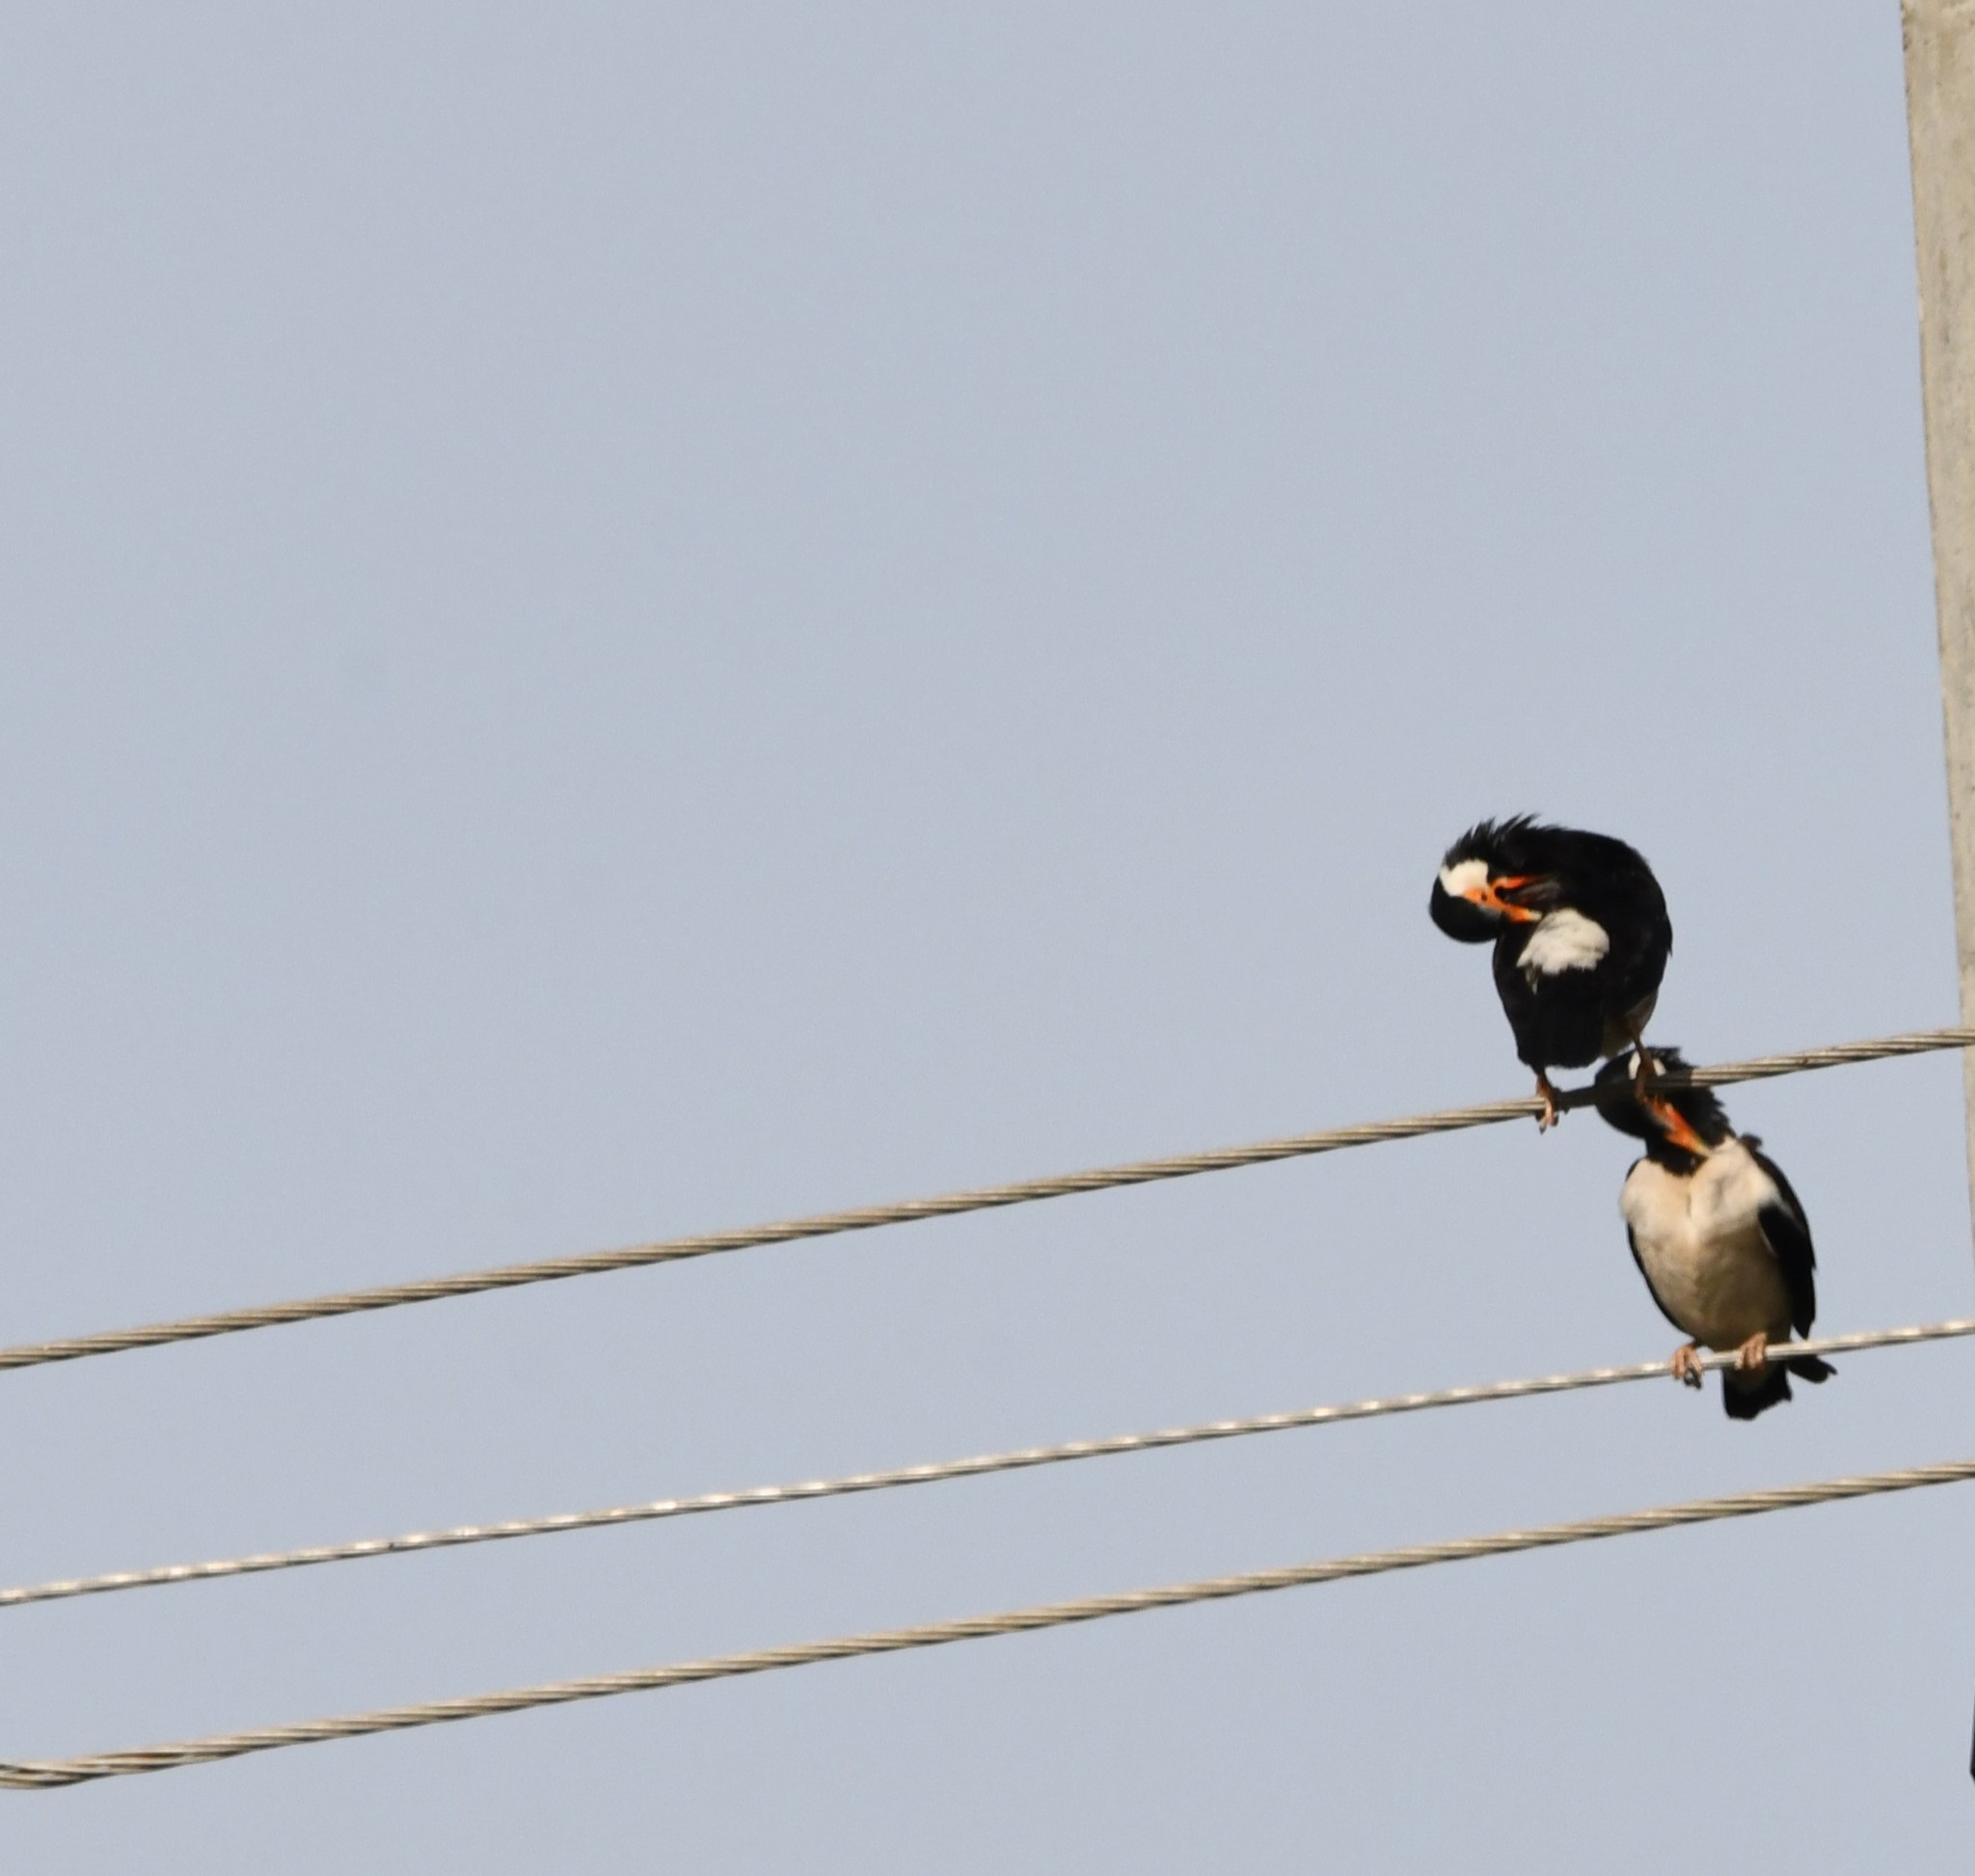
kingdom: Animalia
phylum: Chordata
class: Aves
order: Passeriformes
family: Sturnidae
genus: Gracupica
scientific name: Gracupica contra
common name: Pied myna
